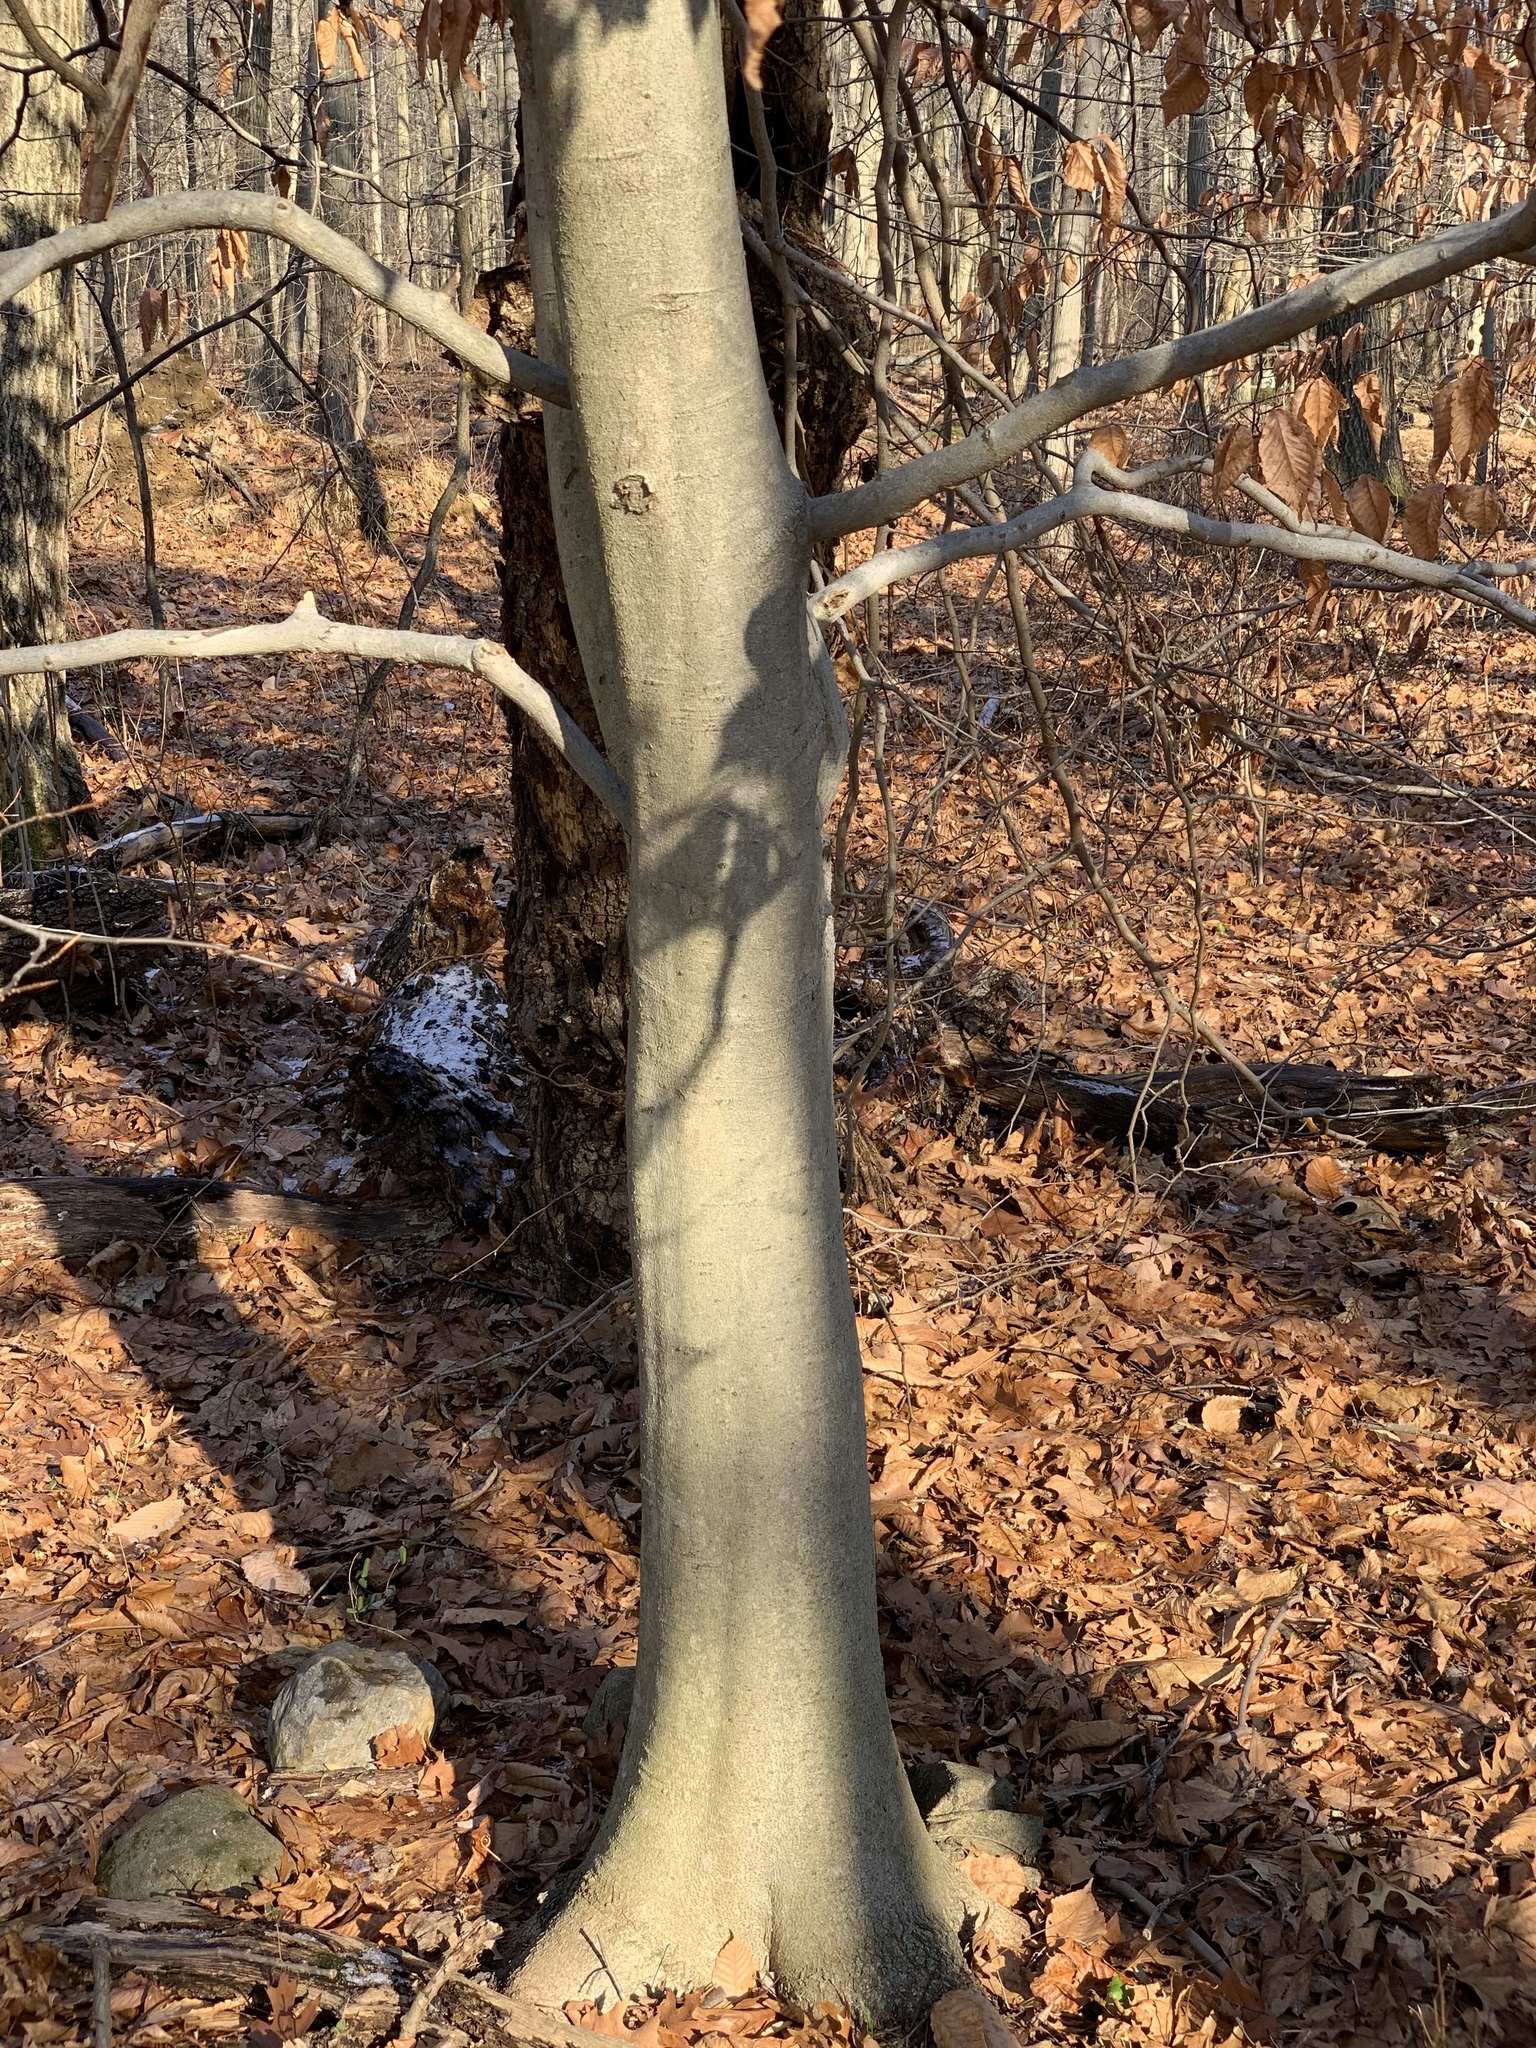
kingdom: Plantae
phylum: Tracheophyta
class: Magnoliopsida
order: Fagales
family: Fagaceae
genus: Fagus
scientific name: Fagus grandifolia
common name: American beech
